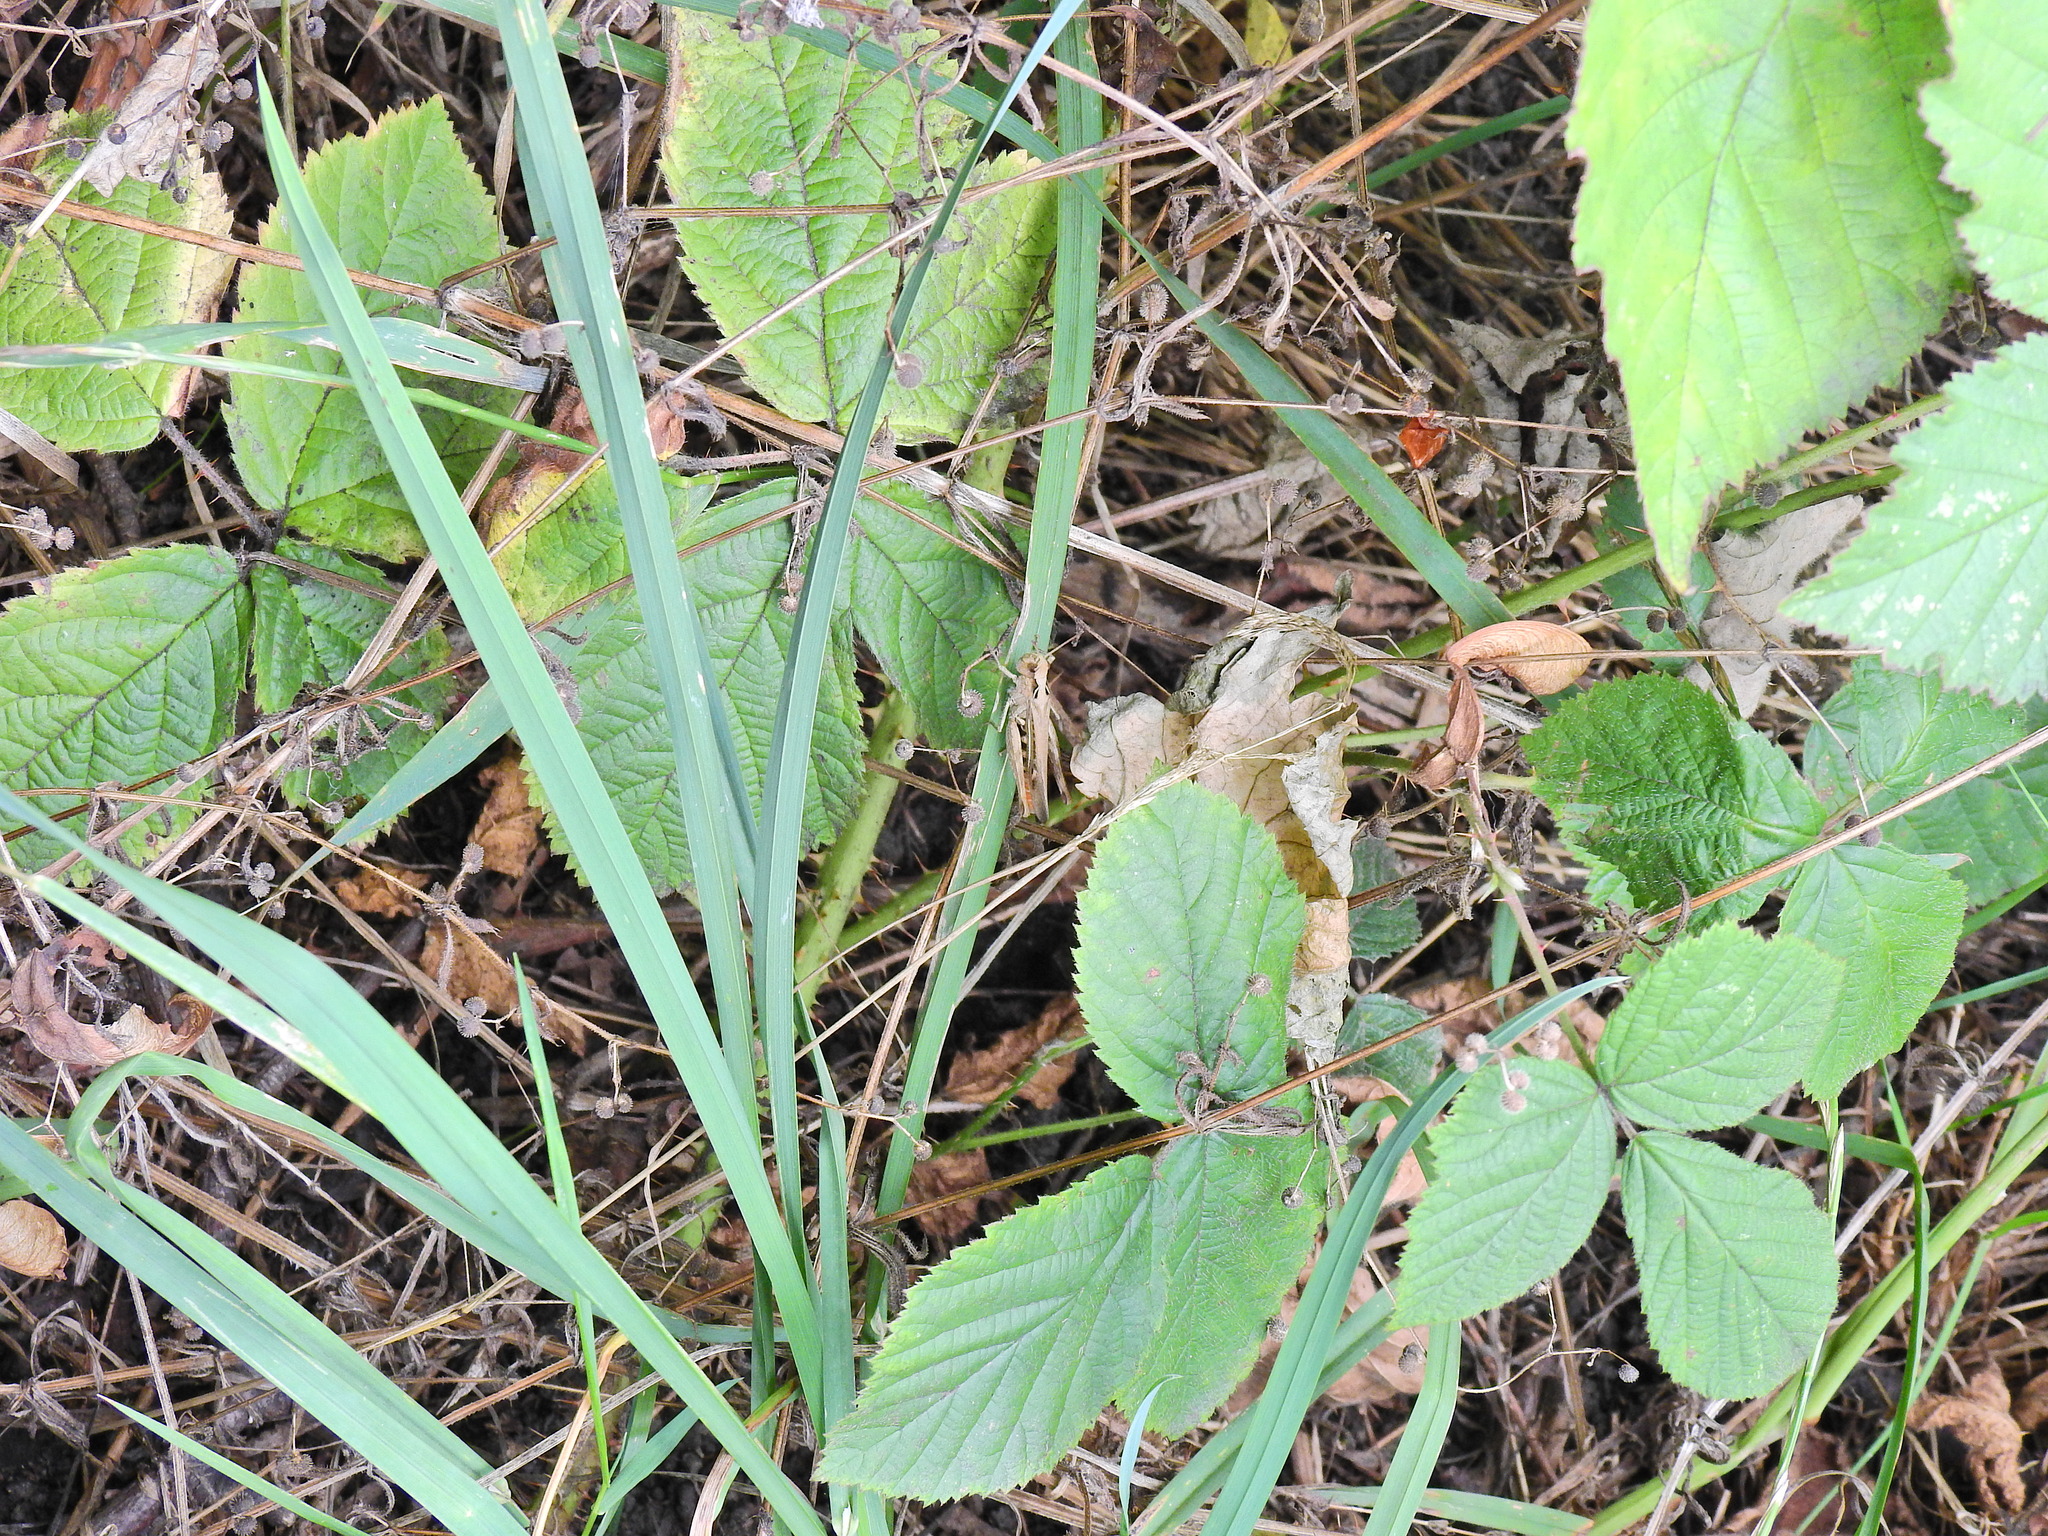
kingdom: Animalia
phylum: Arthropoda
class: Insecta
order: Orthoptera
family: Acrididae
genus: Chorthippus
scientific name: Chorthippus brunneus
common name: Field grasshopper
